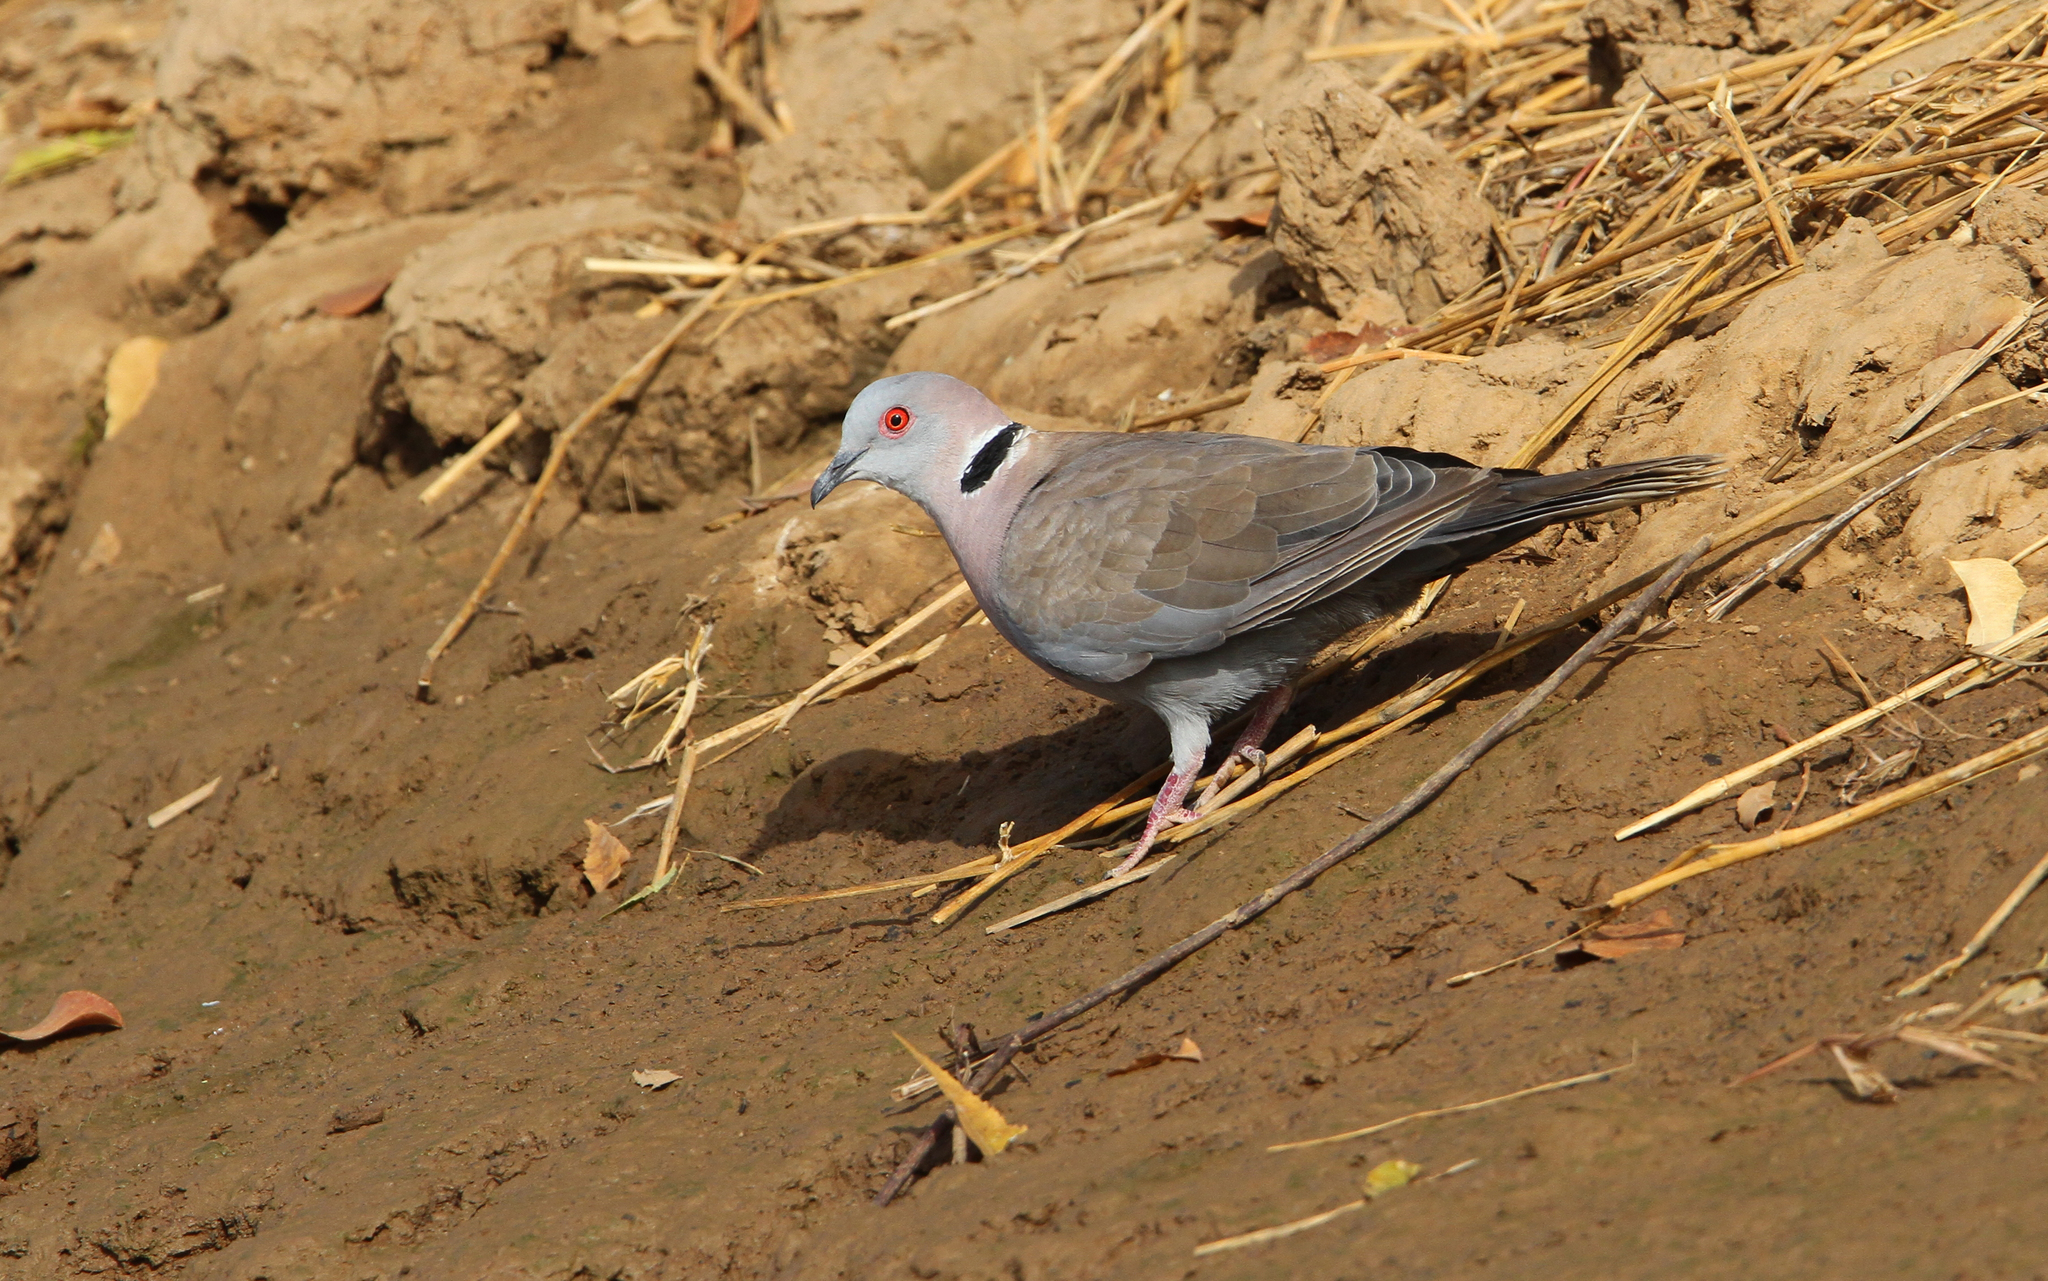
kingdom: Animalia
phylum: Chordata
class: Aves
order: Columbiformes
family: Columbidae
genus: Streptopelia
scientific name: Streptopelia decipiens
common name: Mourning collared dove
